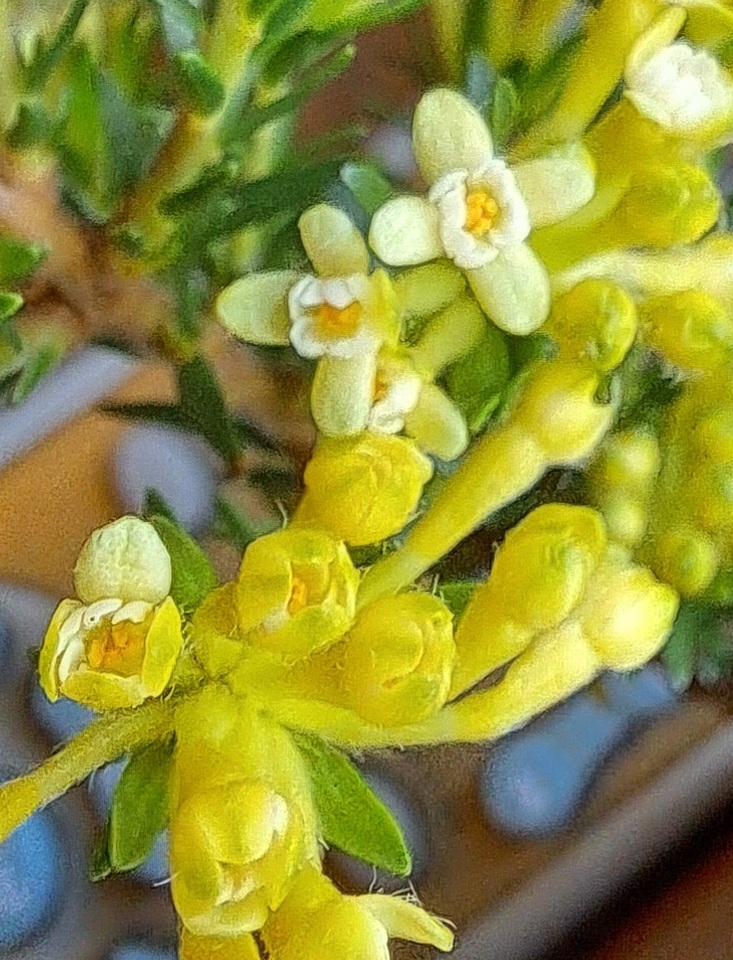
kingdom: Plantae
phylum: Tracheophyta
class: Magnoliopsida
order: Malvales
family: Thymelaeaceae
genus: Gnidia
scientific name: Gnidia squarrosa
